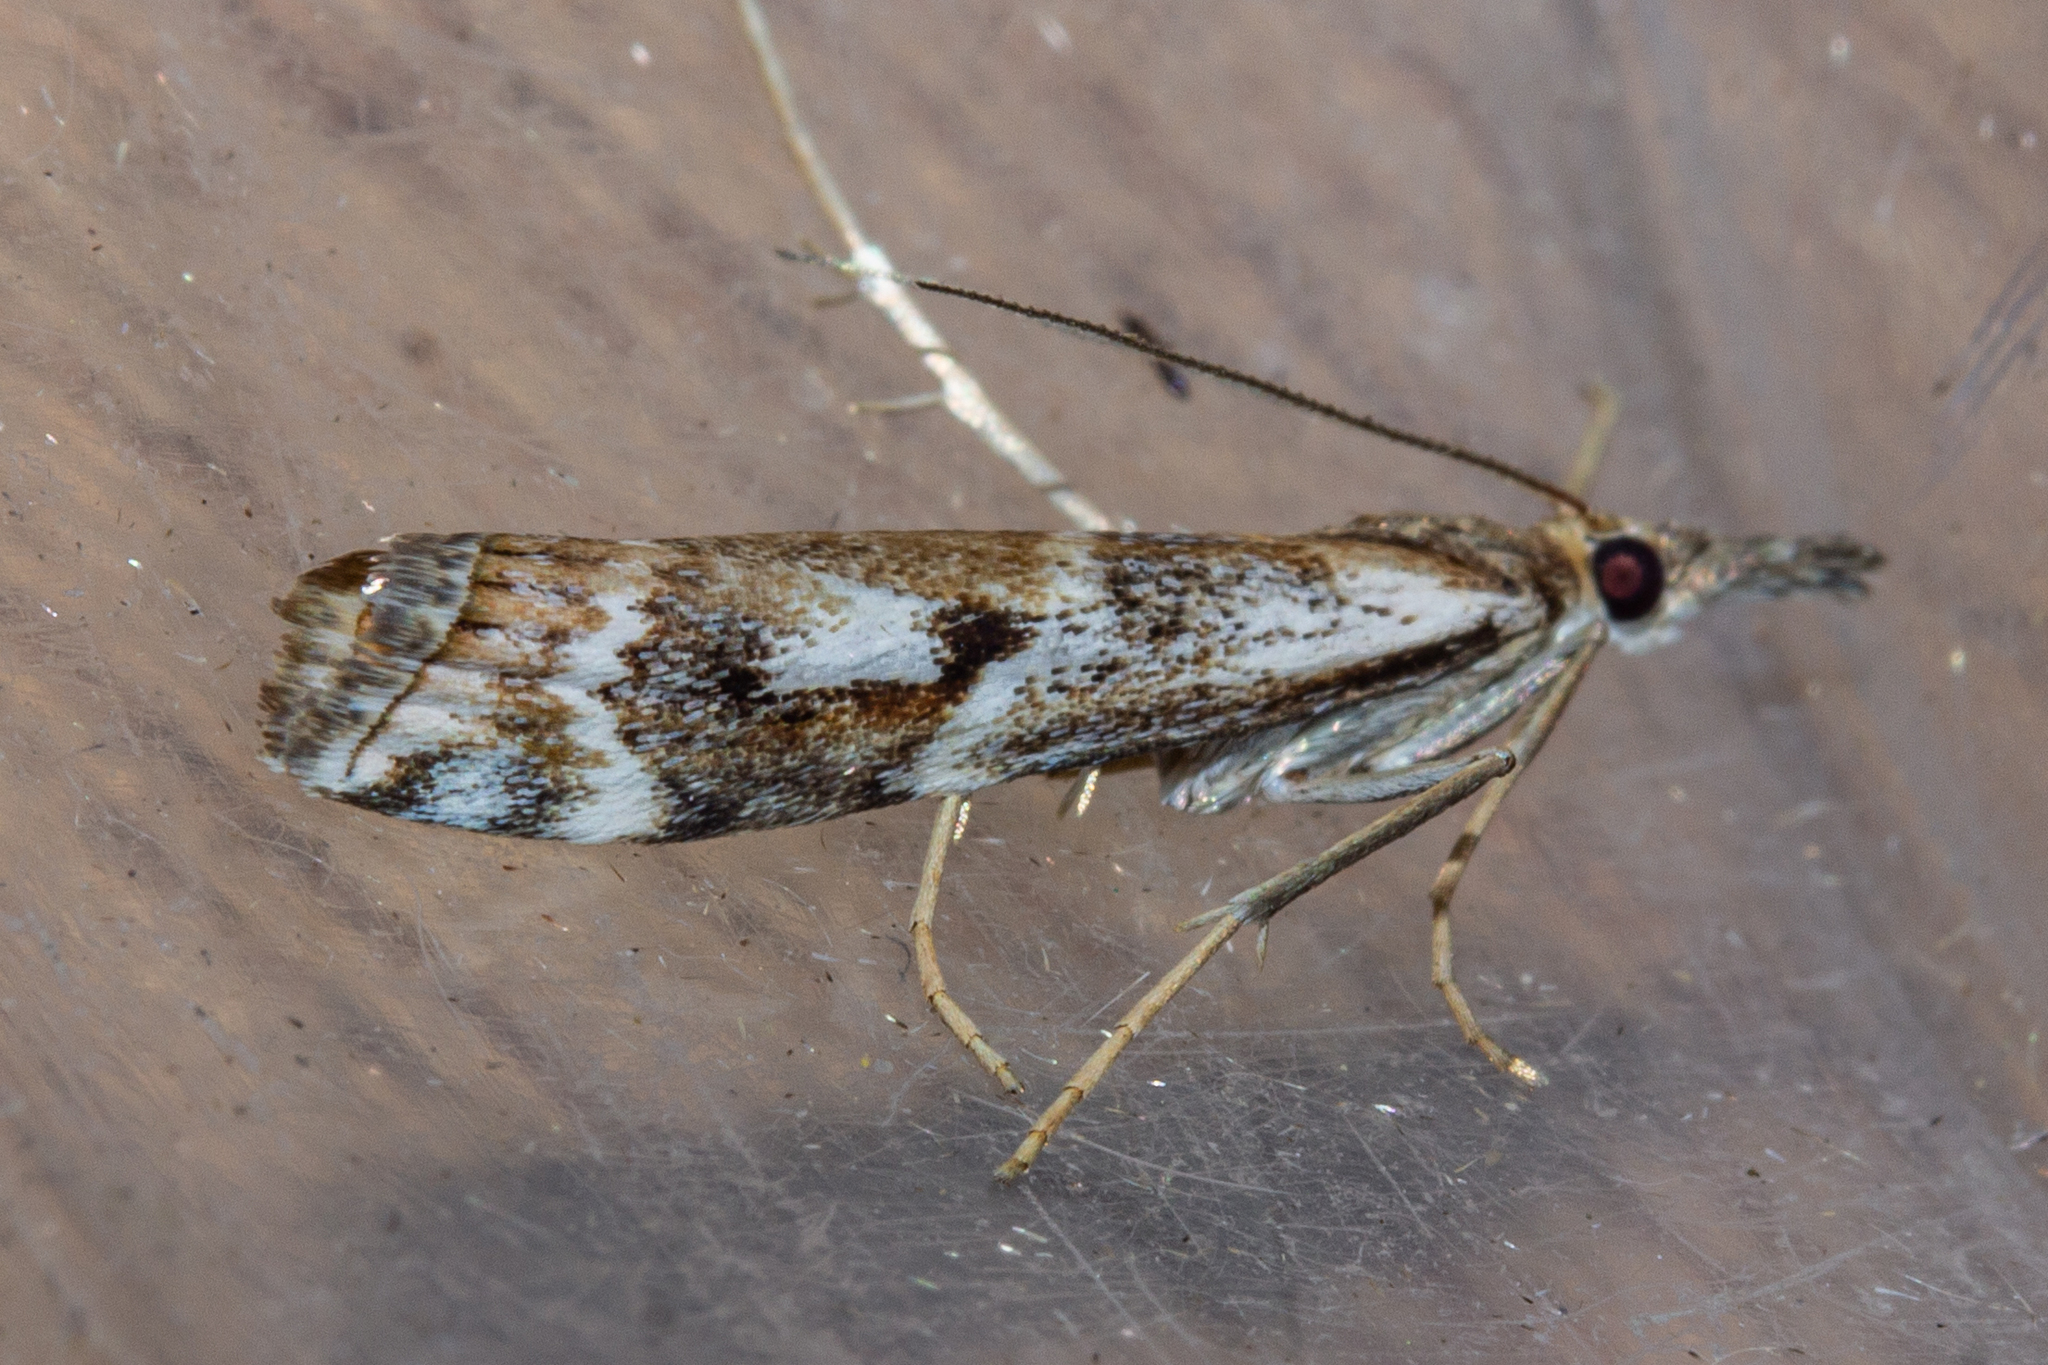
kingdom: Animalia
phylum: Arthropoda
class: Insecta
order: Lepidoptera
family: Crambidae
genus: Orocrambus
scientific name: Orocrambus vulgaris
